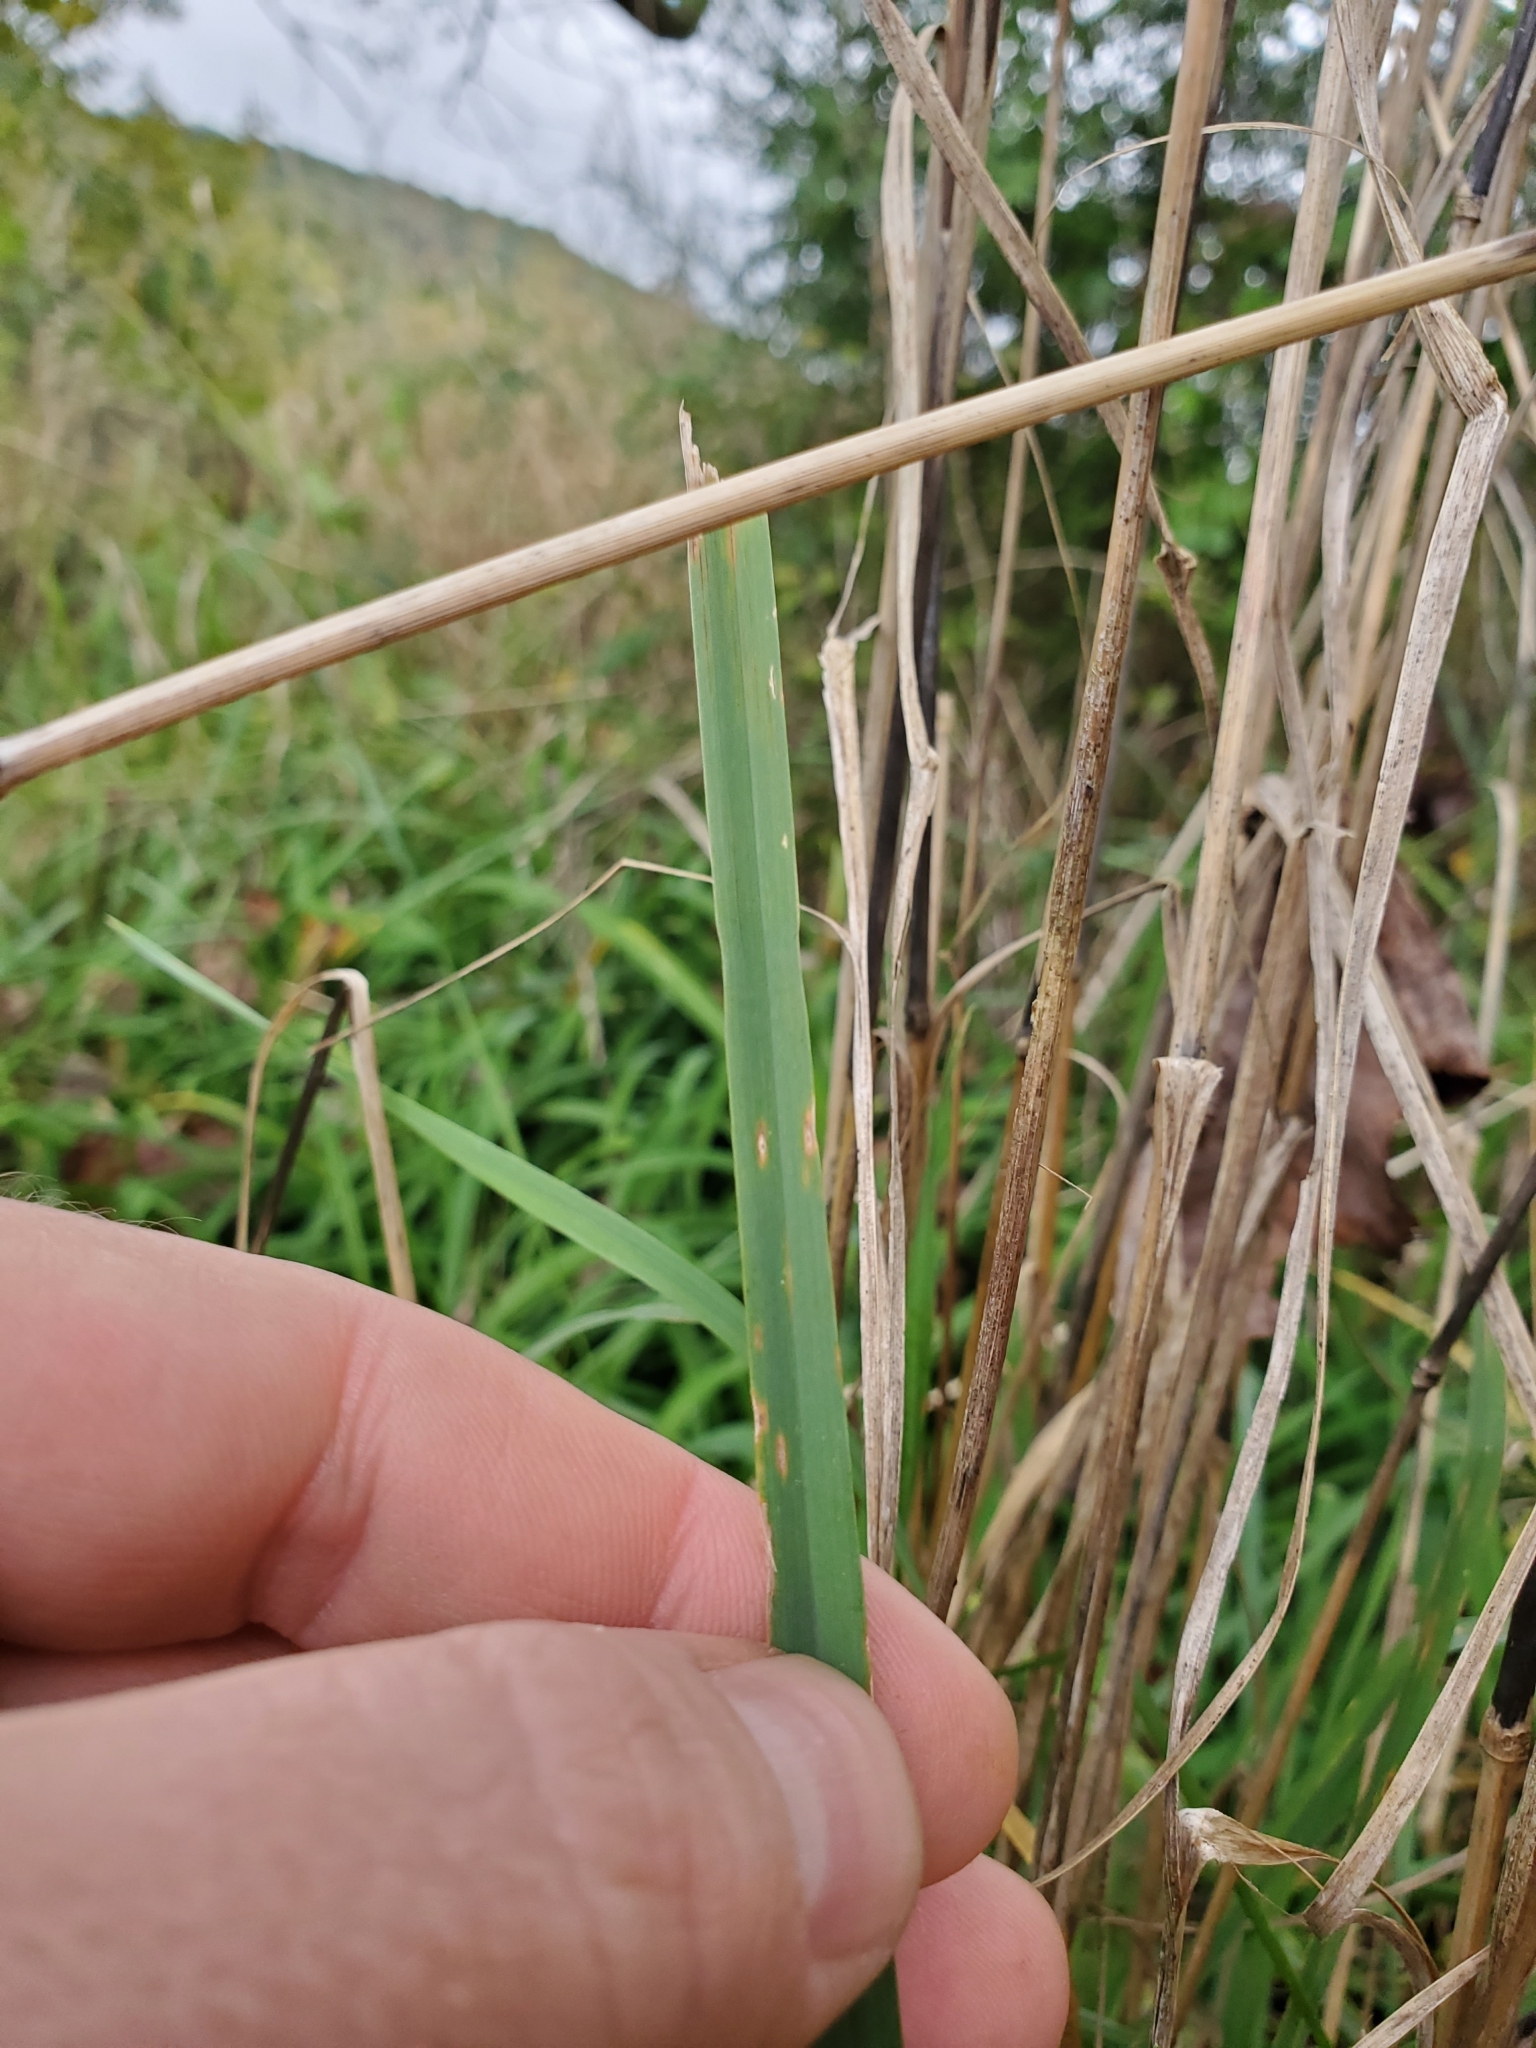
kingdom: Plantae
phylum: Tracheophyta
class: Liliopsida
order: Poales
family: Poaceae
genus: Dactylis
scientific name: Dactylis glomerata
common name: Orchardgrass
